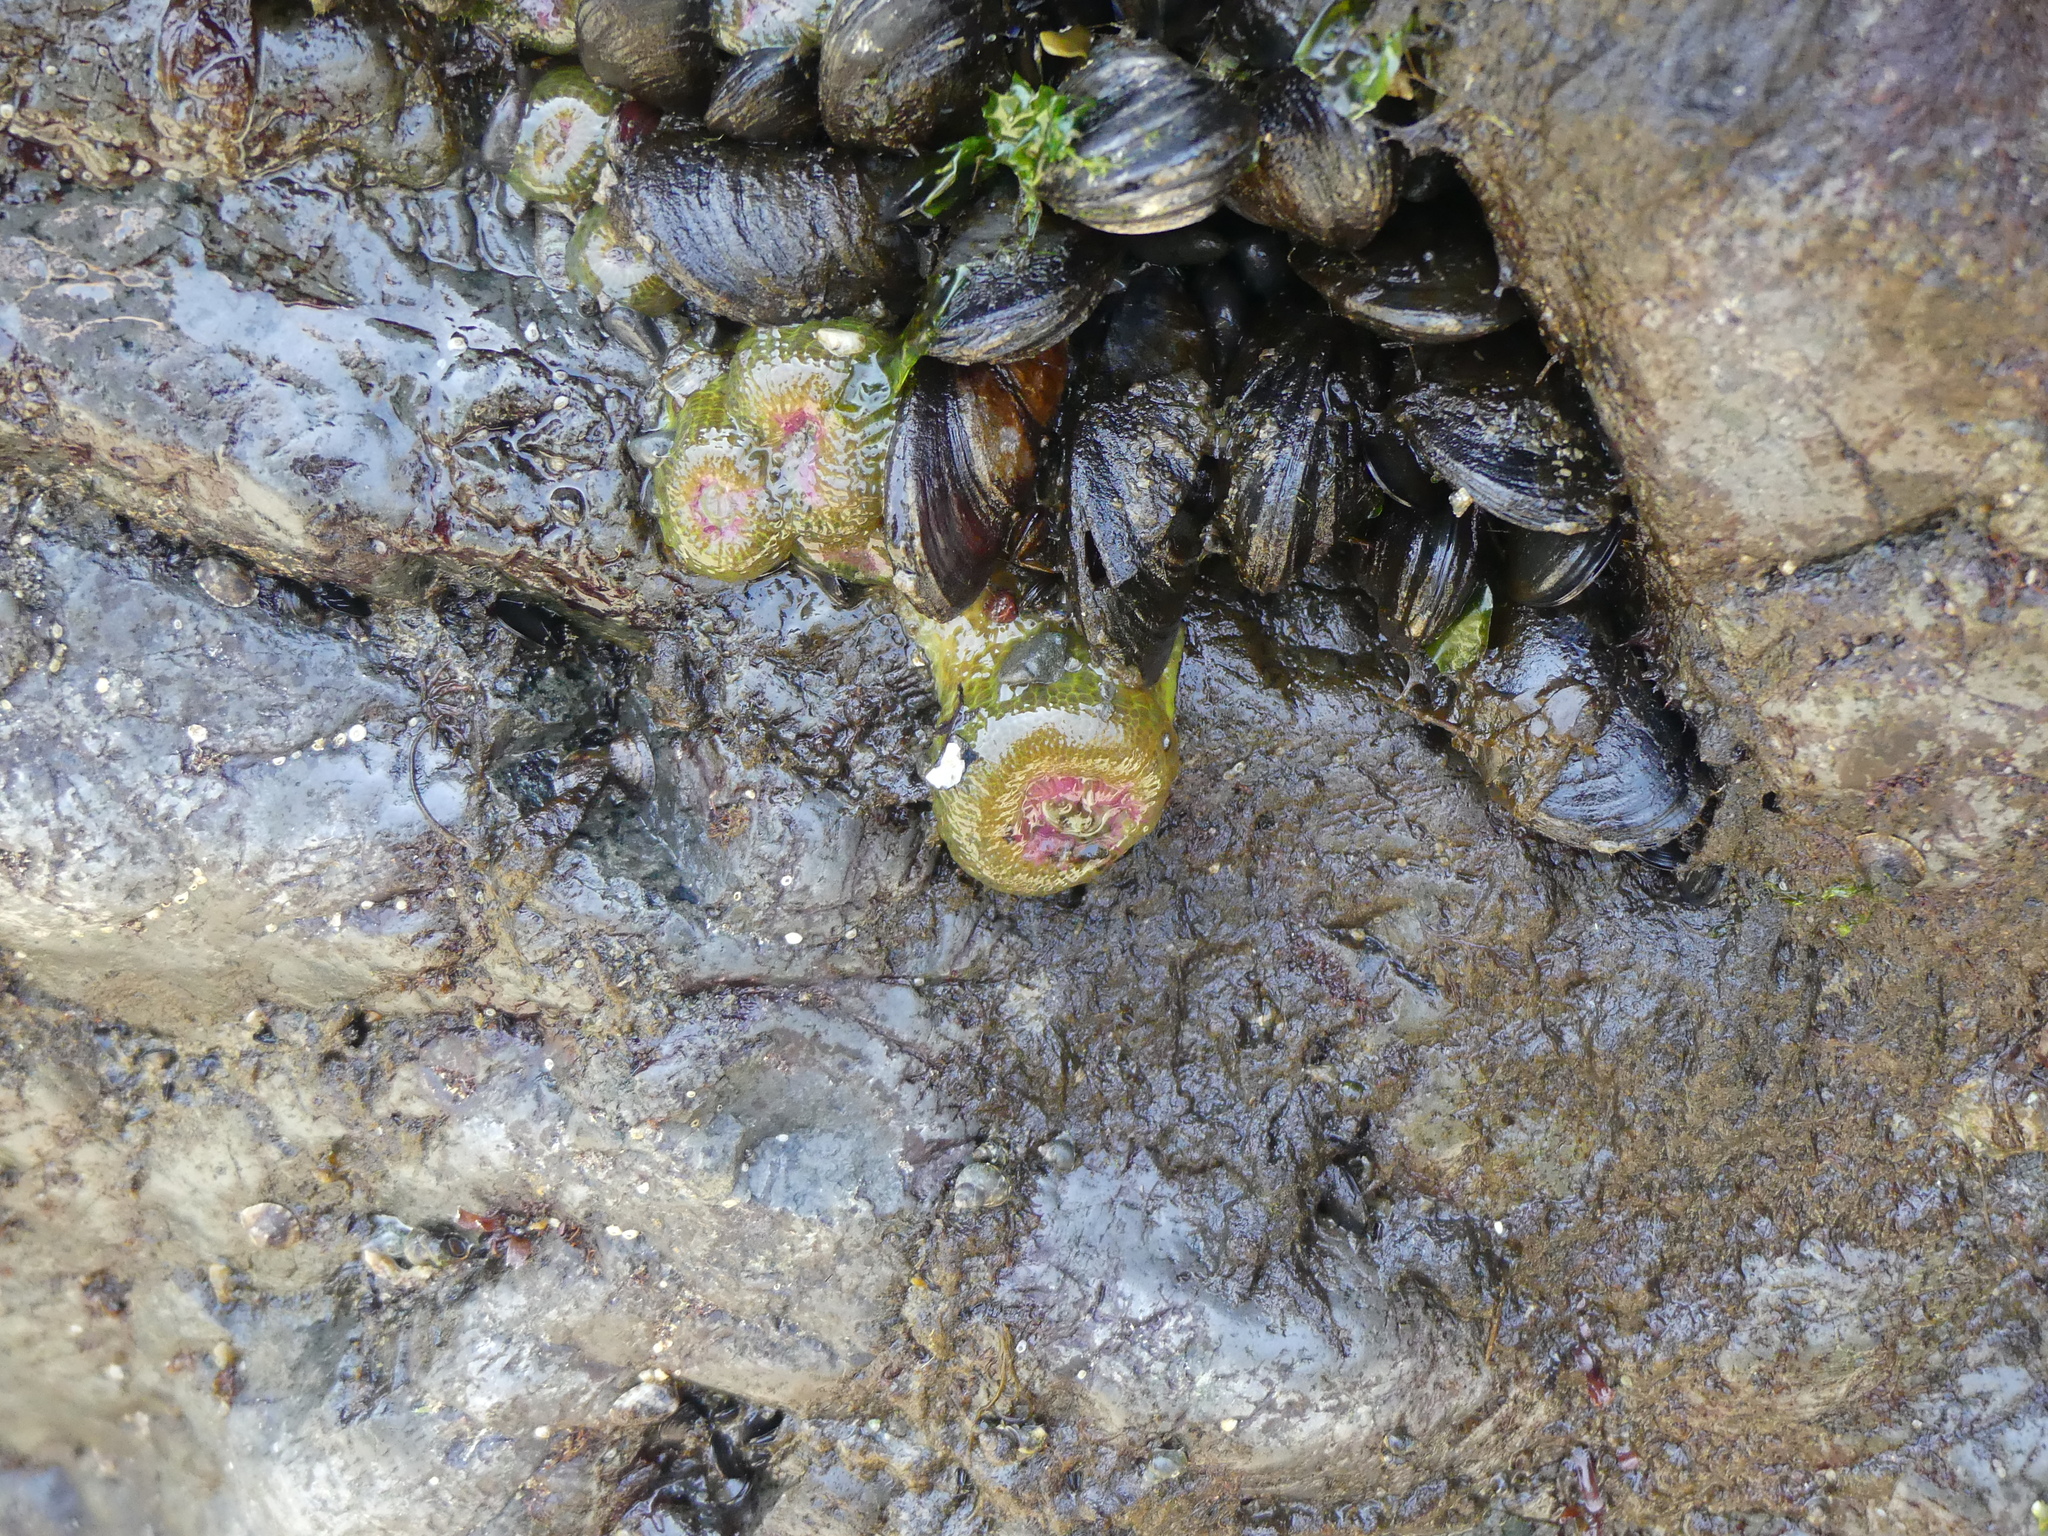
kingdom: Animalia
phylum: Cnidaria
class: Anthozoa
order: Actiniaria
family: Actiniidae
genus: Anthopleura
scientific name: Anthopleura elegantissima
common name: Clonal anemone
